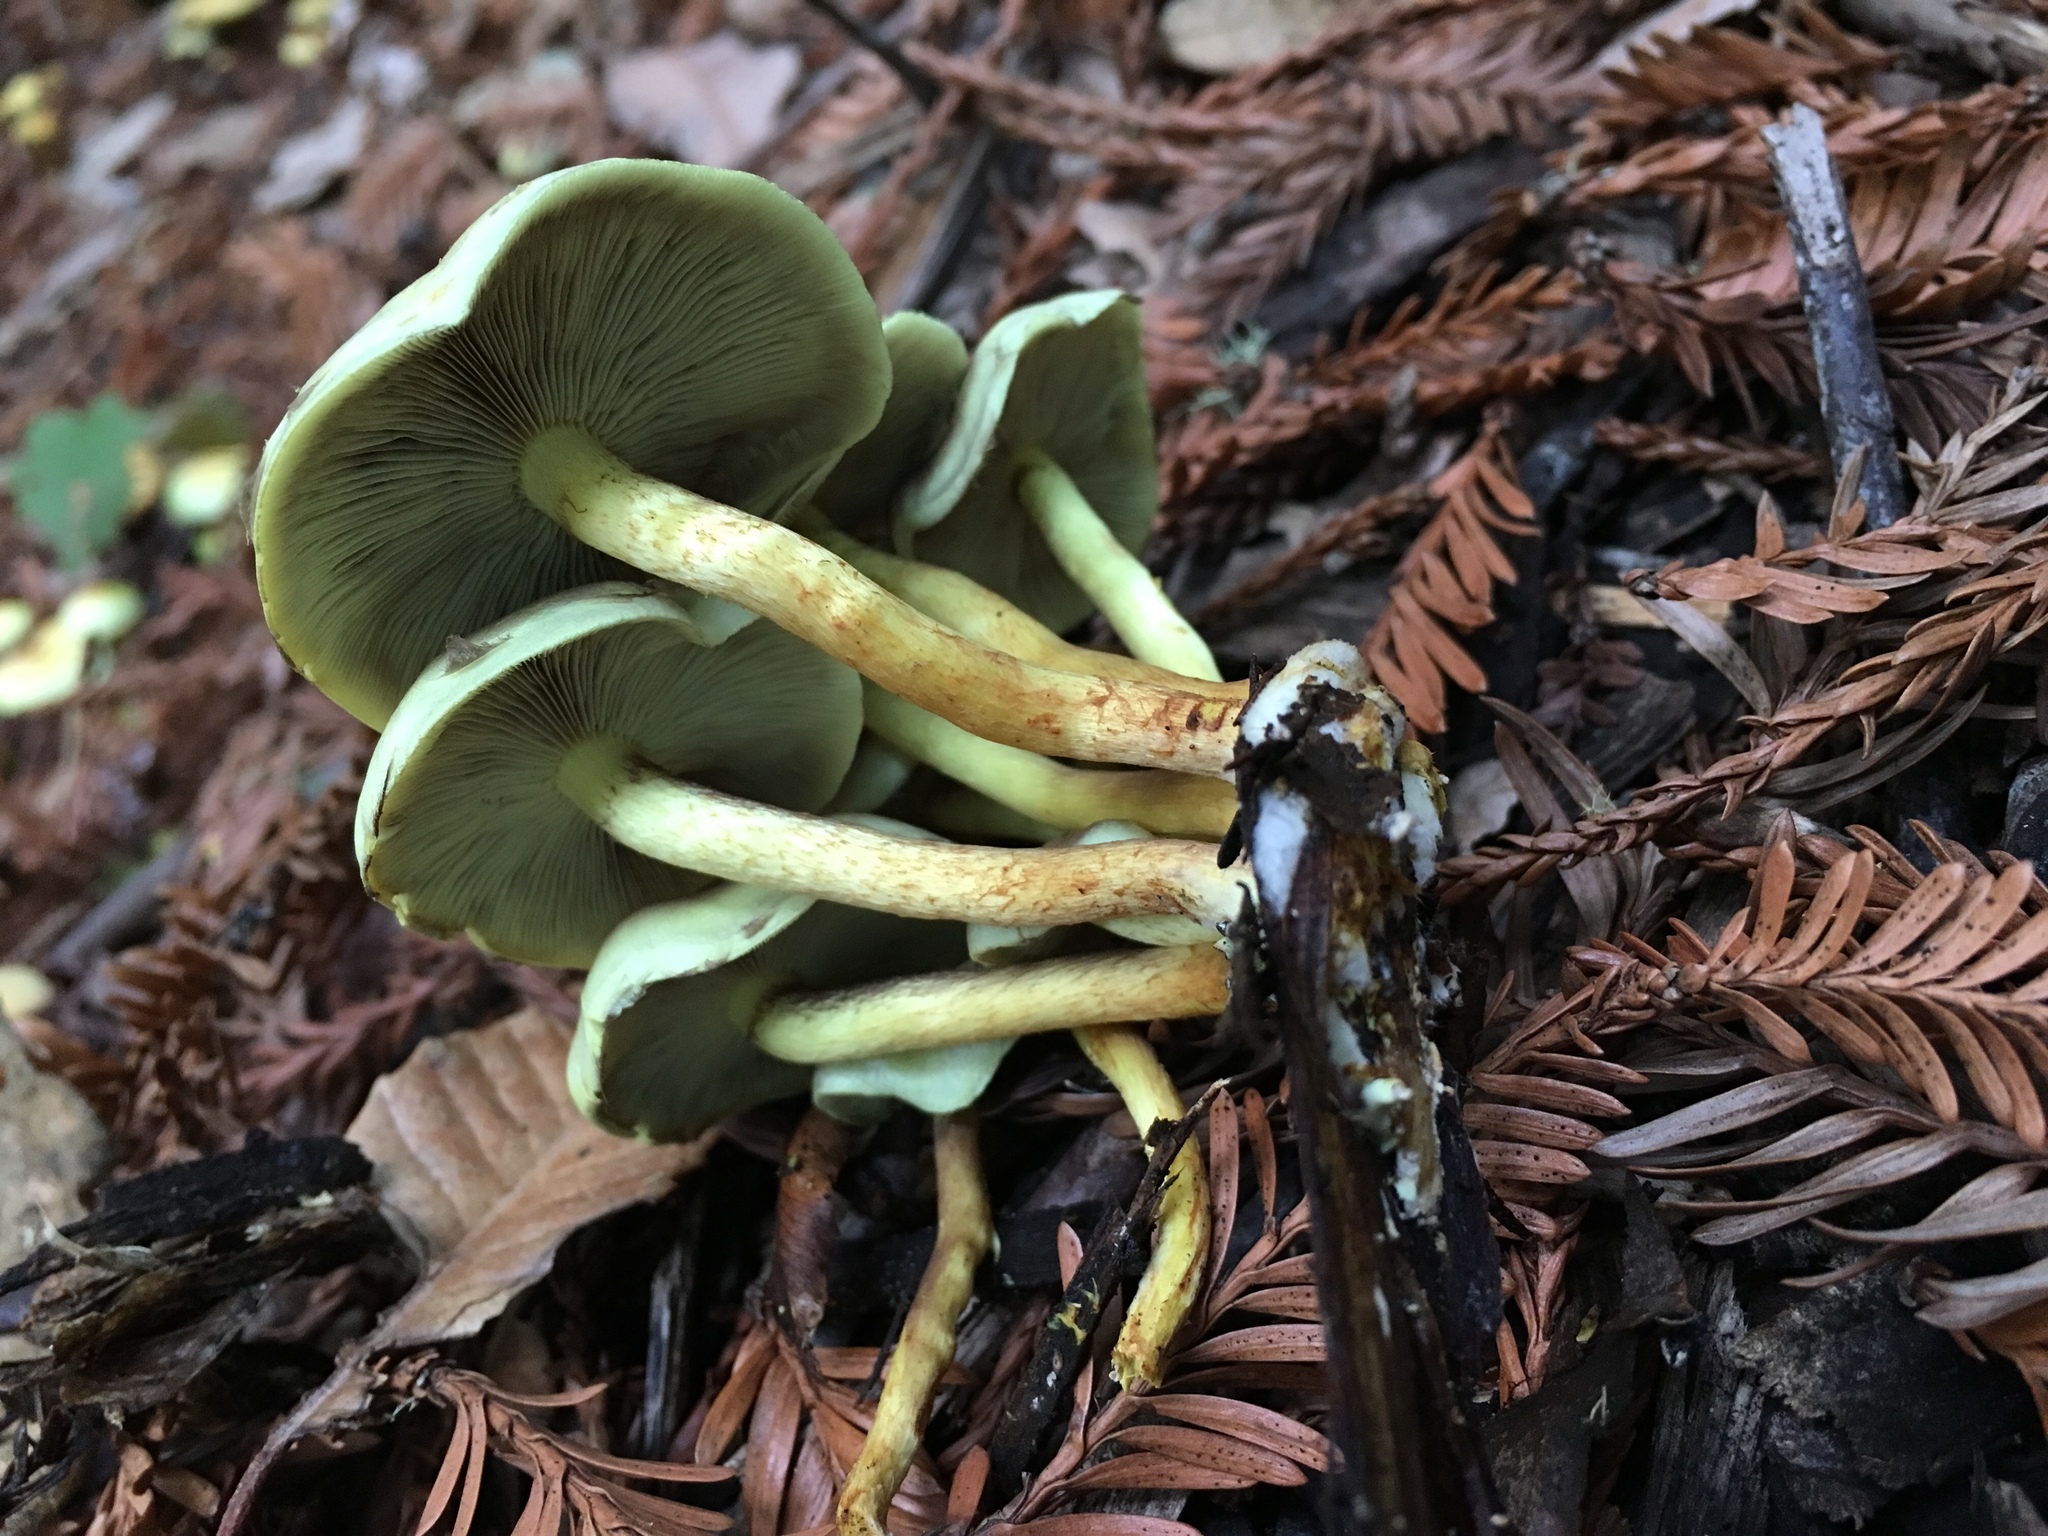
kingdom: Fungi
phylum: Basidiomycota
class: Agaricomycetes
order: Agaricales
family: Strophariaceae
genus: Hypholoma
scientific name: Hypholoma fasciculare
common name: Sulphur tuft
